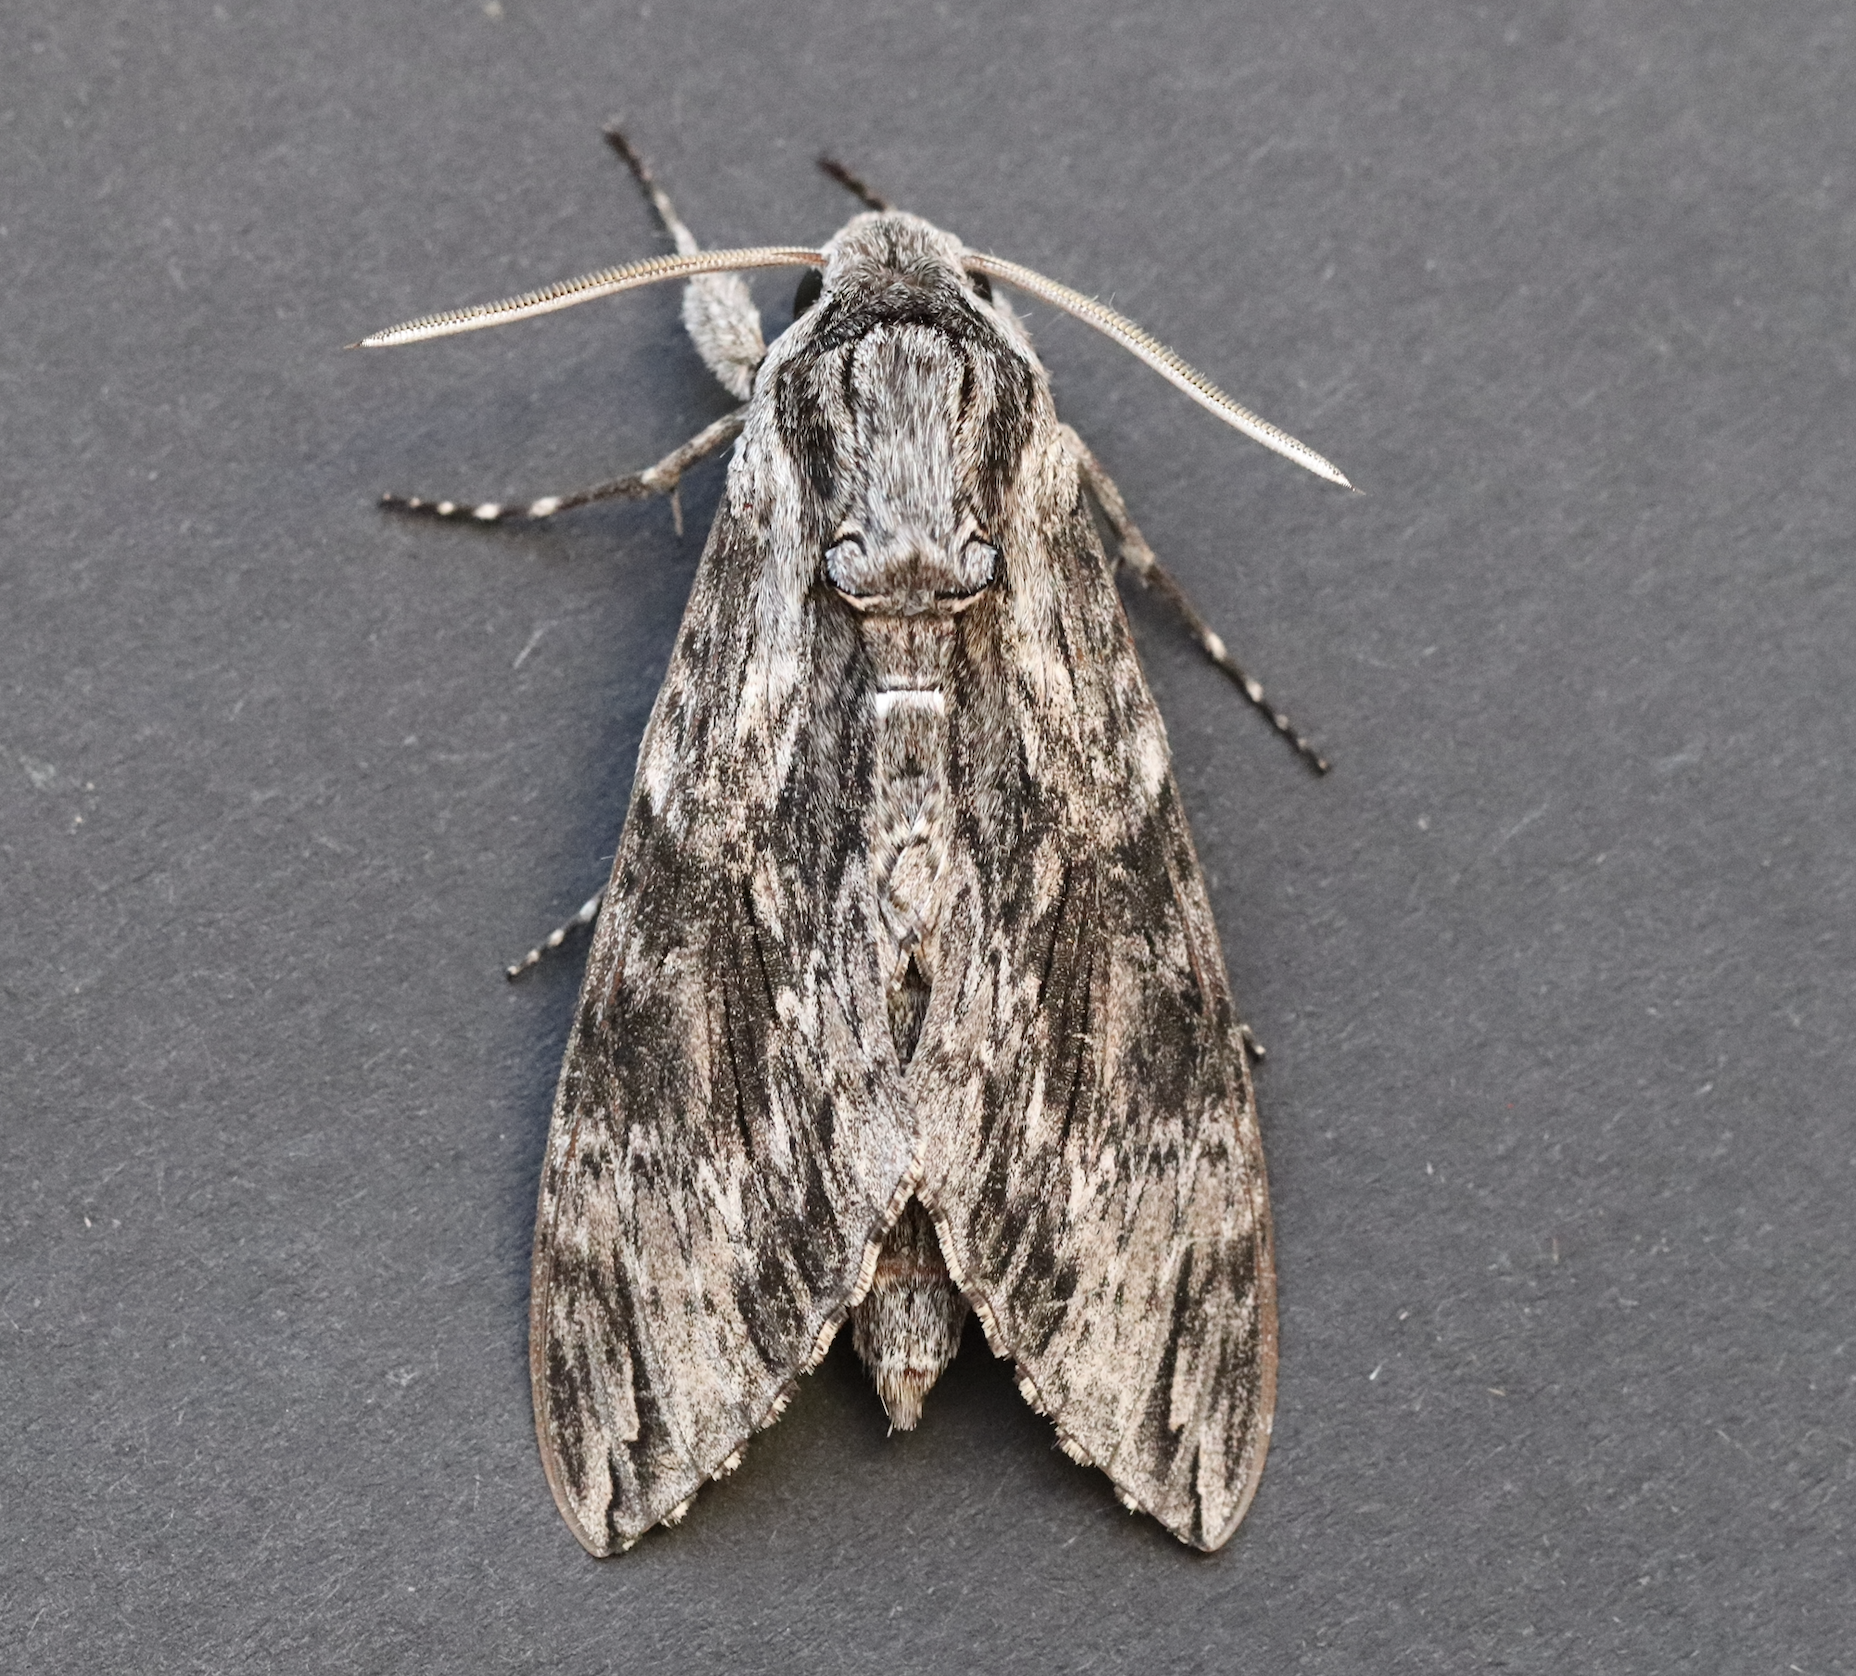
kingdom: Animalia
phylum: Arthropoda
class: Insecta
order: Lepidoptera
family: Sphingidae
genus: Agrius
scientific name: Agrius convolvuli
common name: Convolvulus hawkmoth
